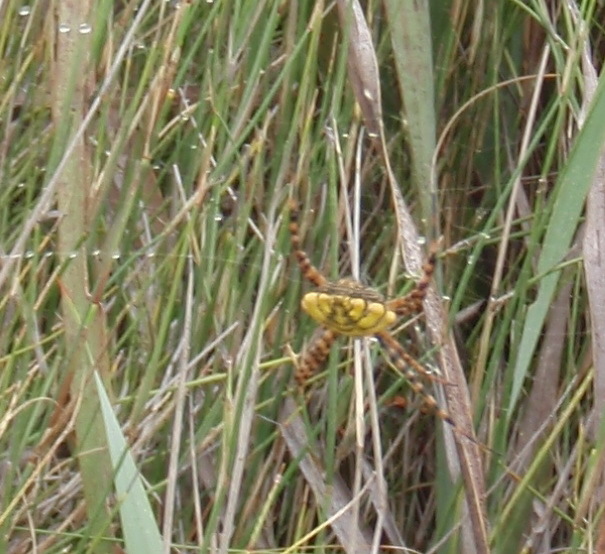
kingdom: Animalia
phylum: Arthropoda
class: Arachnida
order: Araneae
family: Araneidae
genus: Argiope
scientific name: Argiope australis
